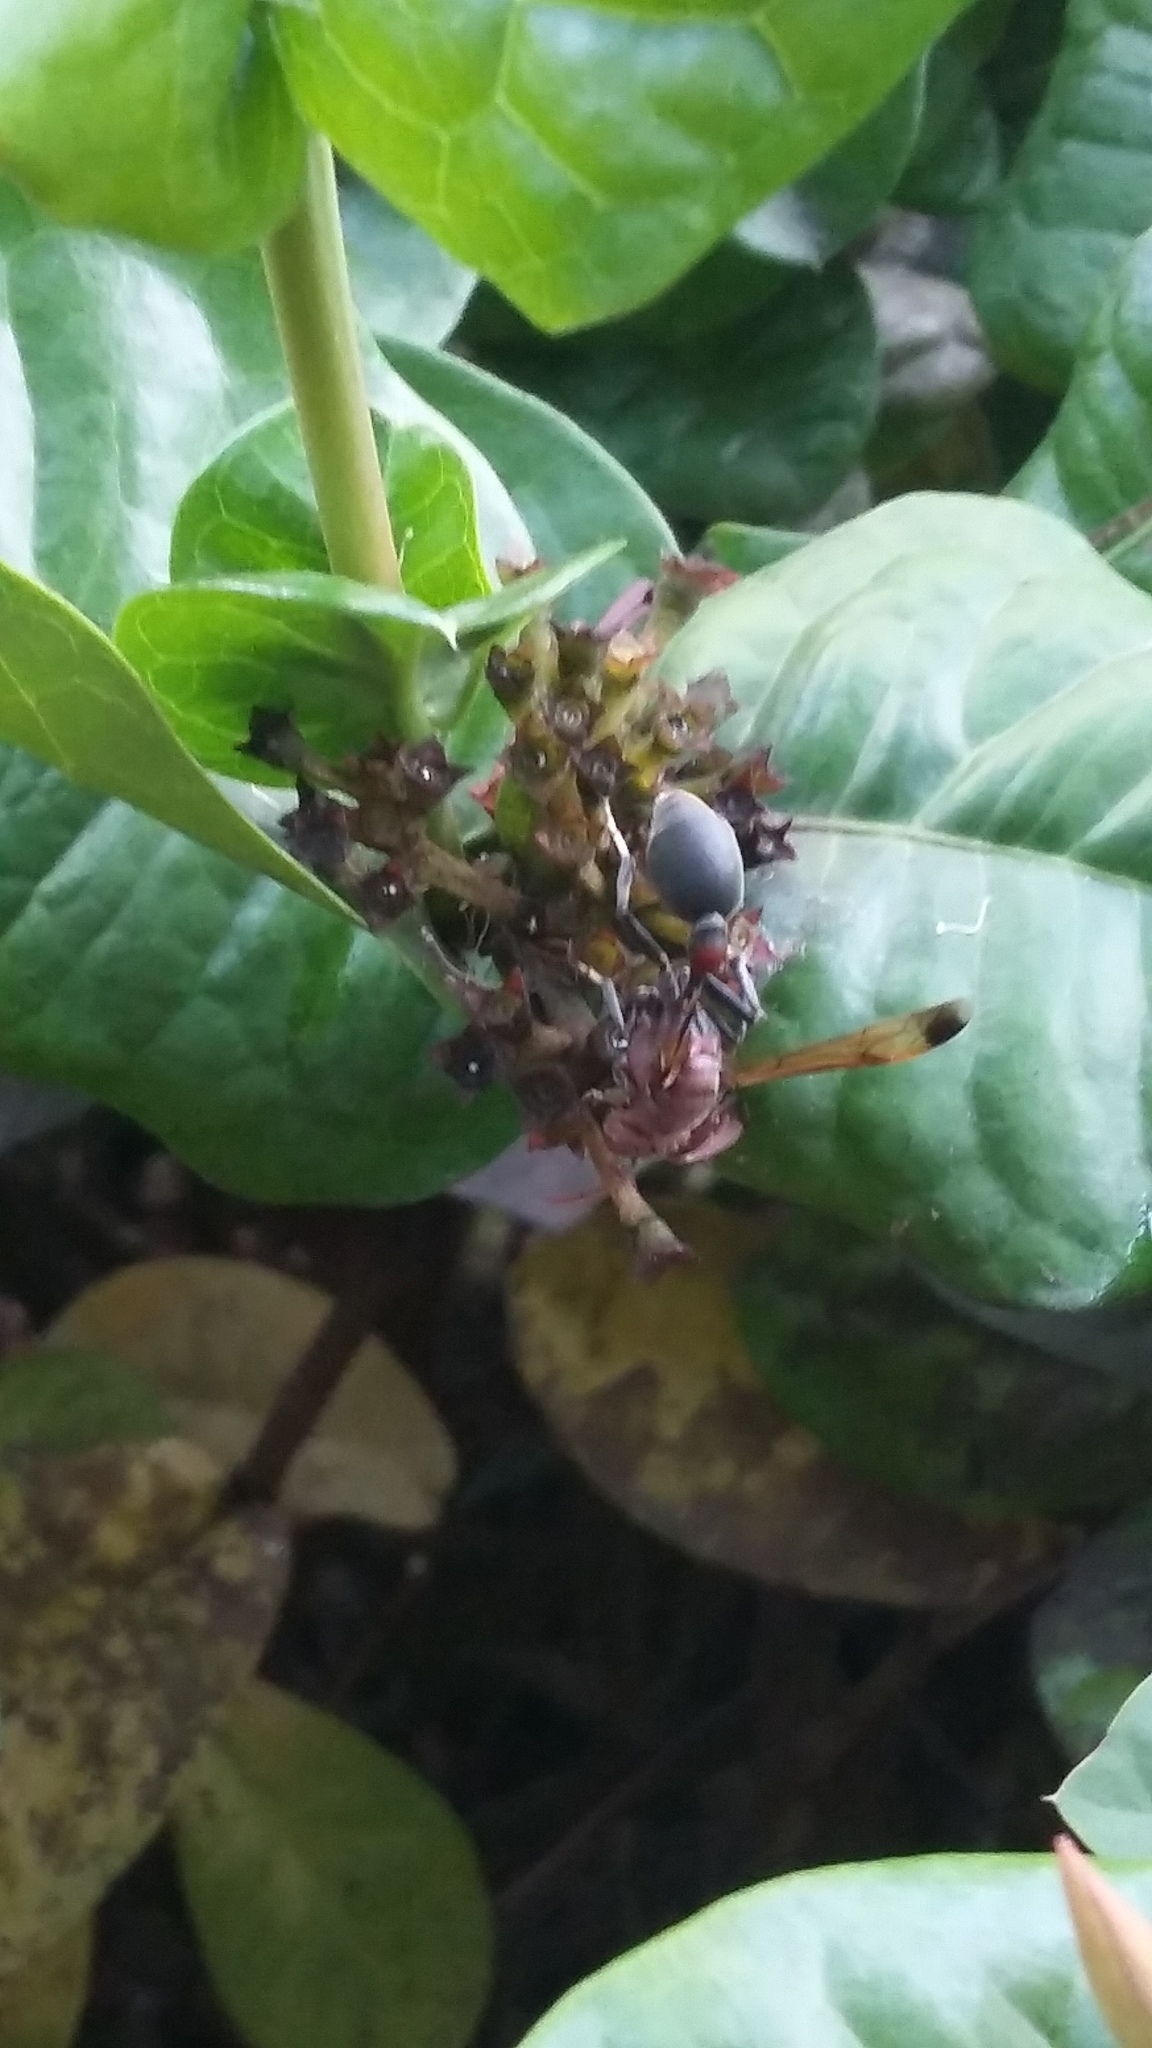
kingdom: Animalia
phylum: Arthropoda
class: Insecta
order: Hymenoptera
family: Vespidae
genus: Ropalidia
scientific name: Ropalidia magnanima
